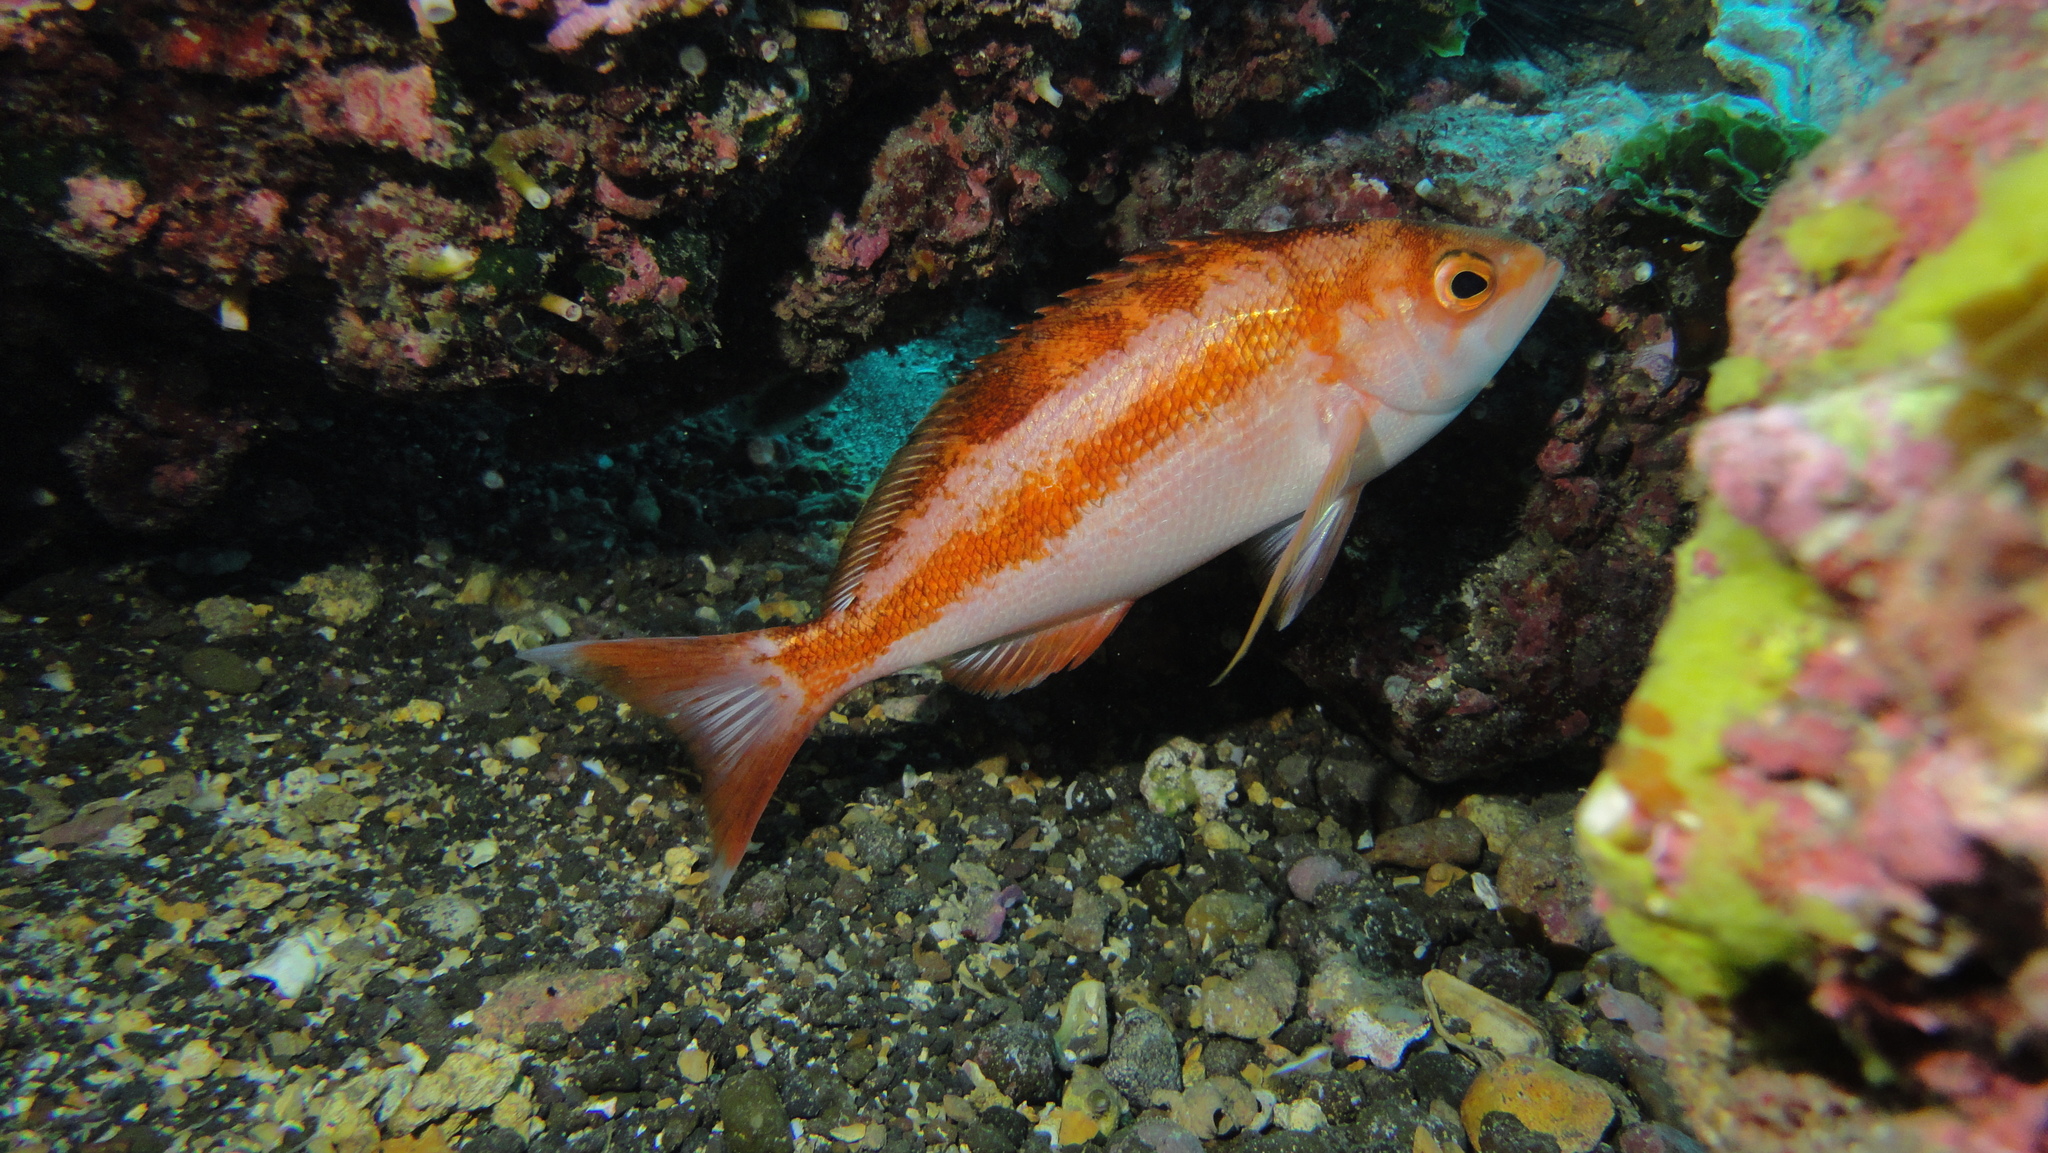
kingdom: Animalia
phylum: Chordata
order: Perciformes
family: Serranidae
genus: Caprodon
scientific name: Caprodon longimanus
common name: Pink maomao
